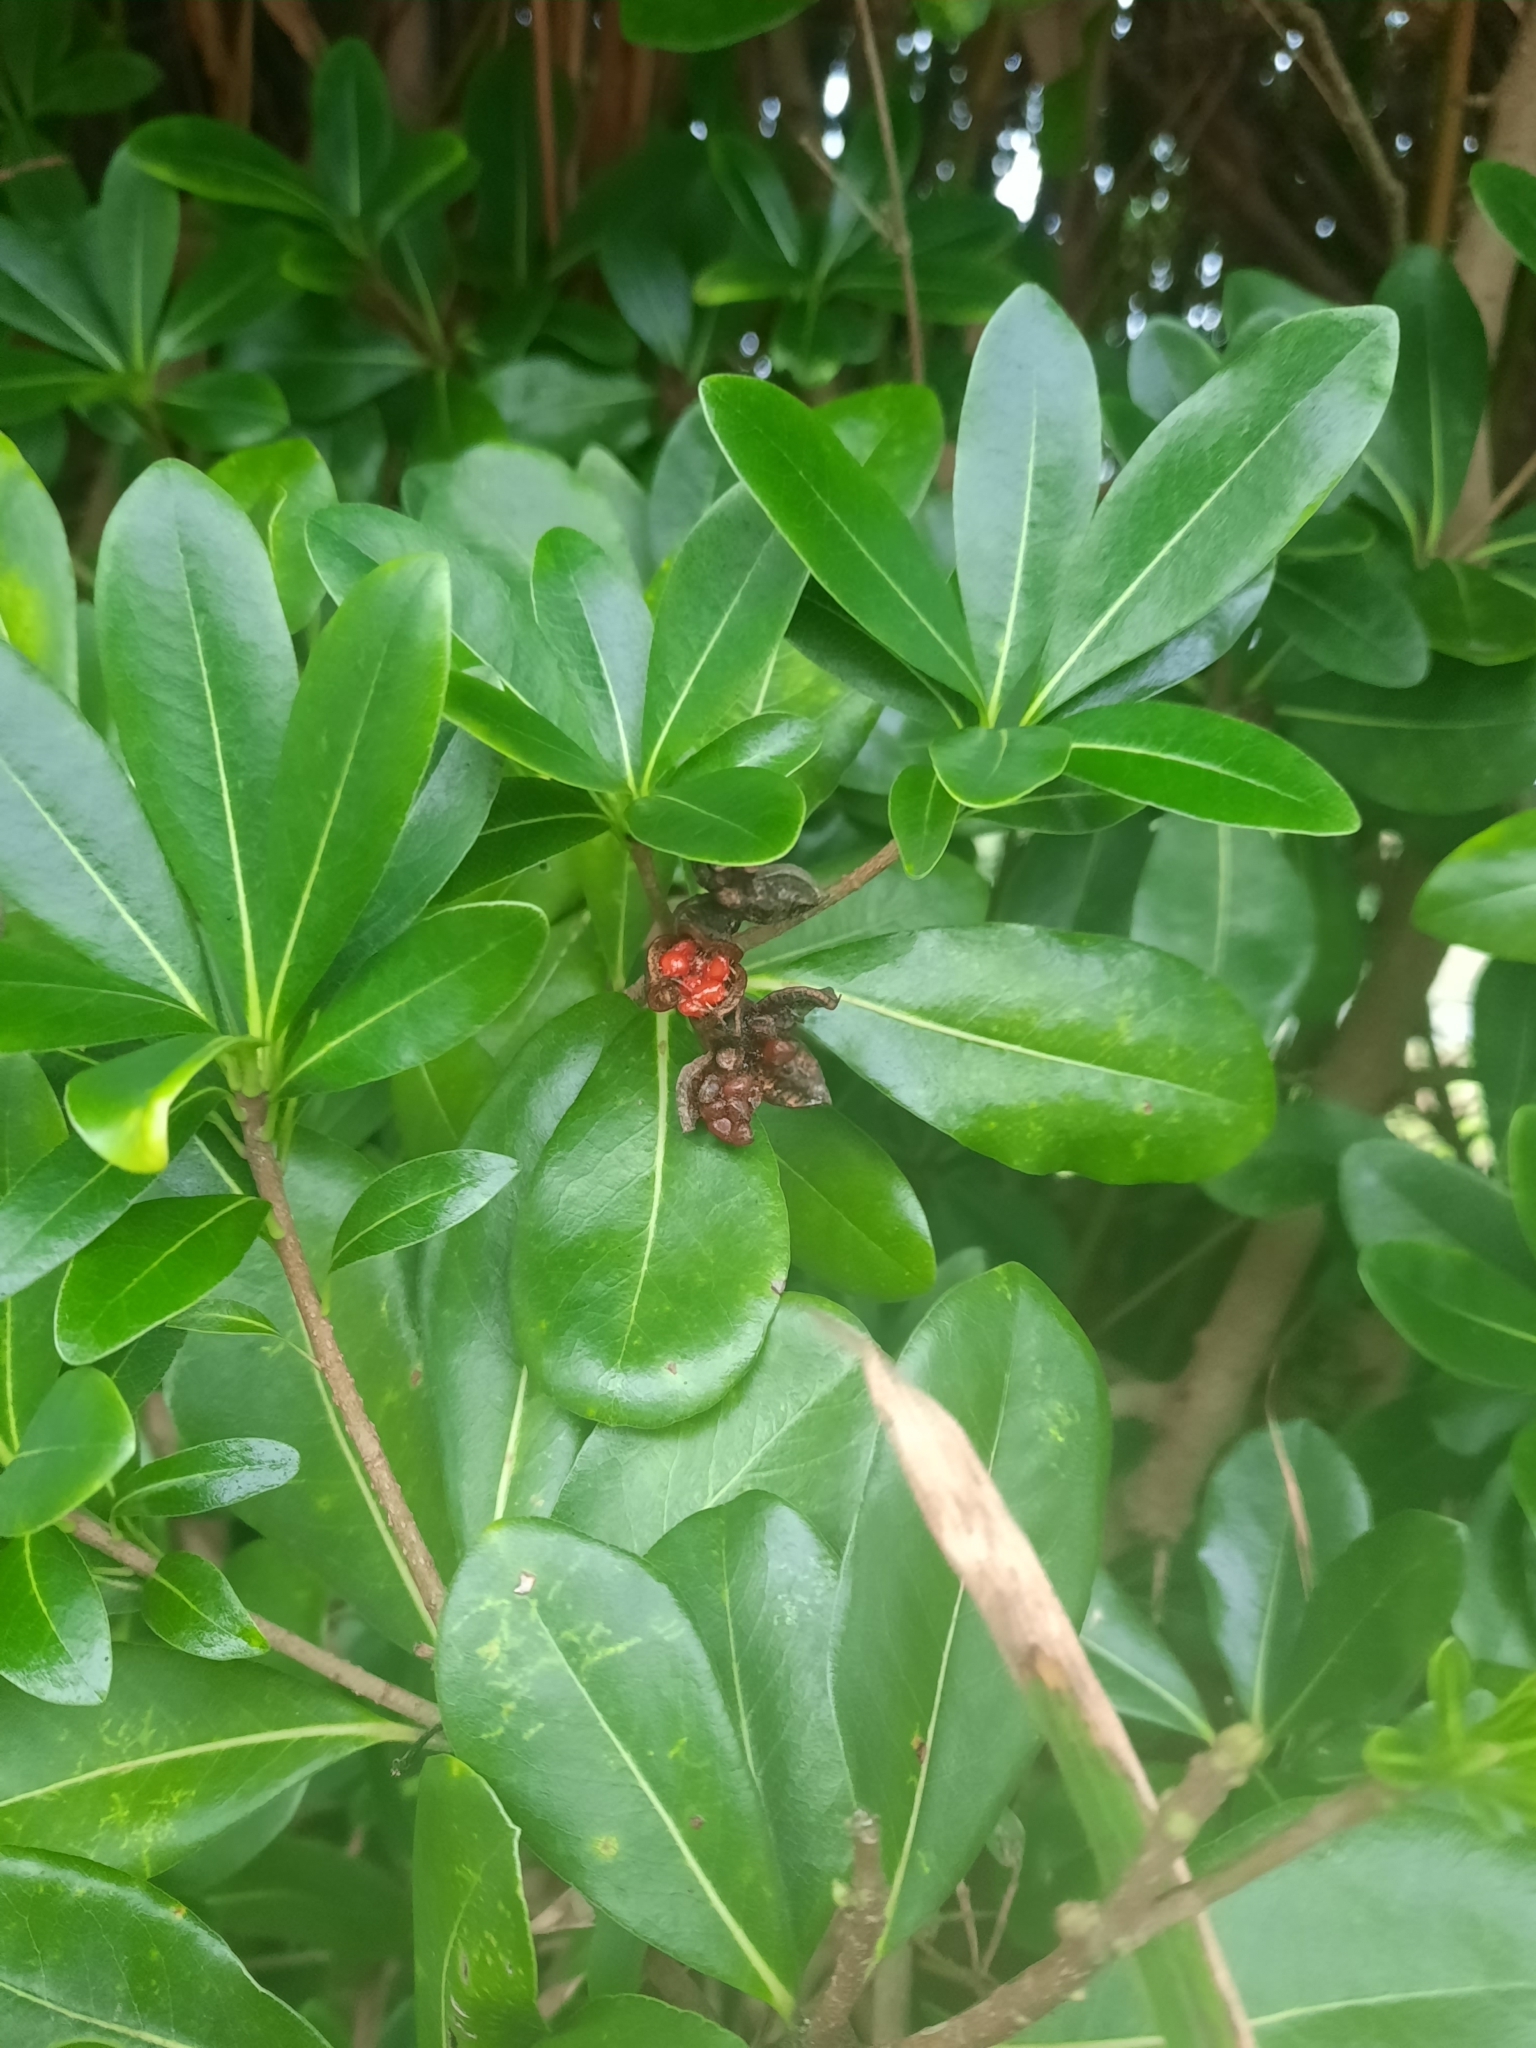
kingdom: Plantae
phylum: Tracheophyta
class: Magnoliopsida
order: Apiales
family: Pittosporaceae
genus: Pittosporum
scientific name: Pittosporum tobira
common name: Japanese cheesewood
